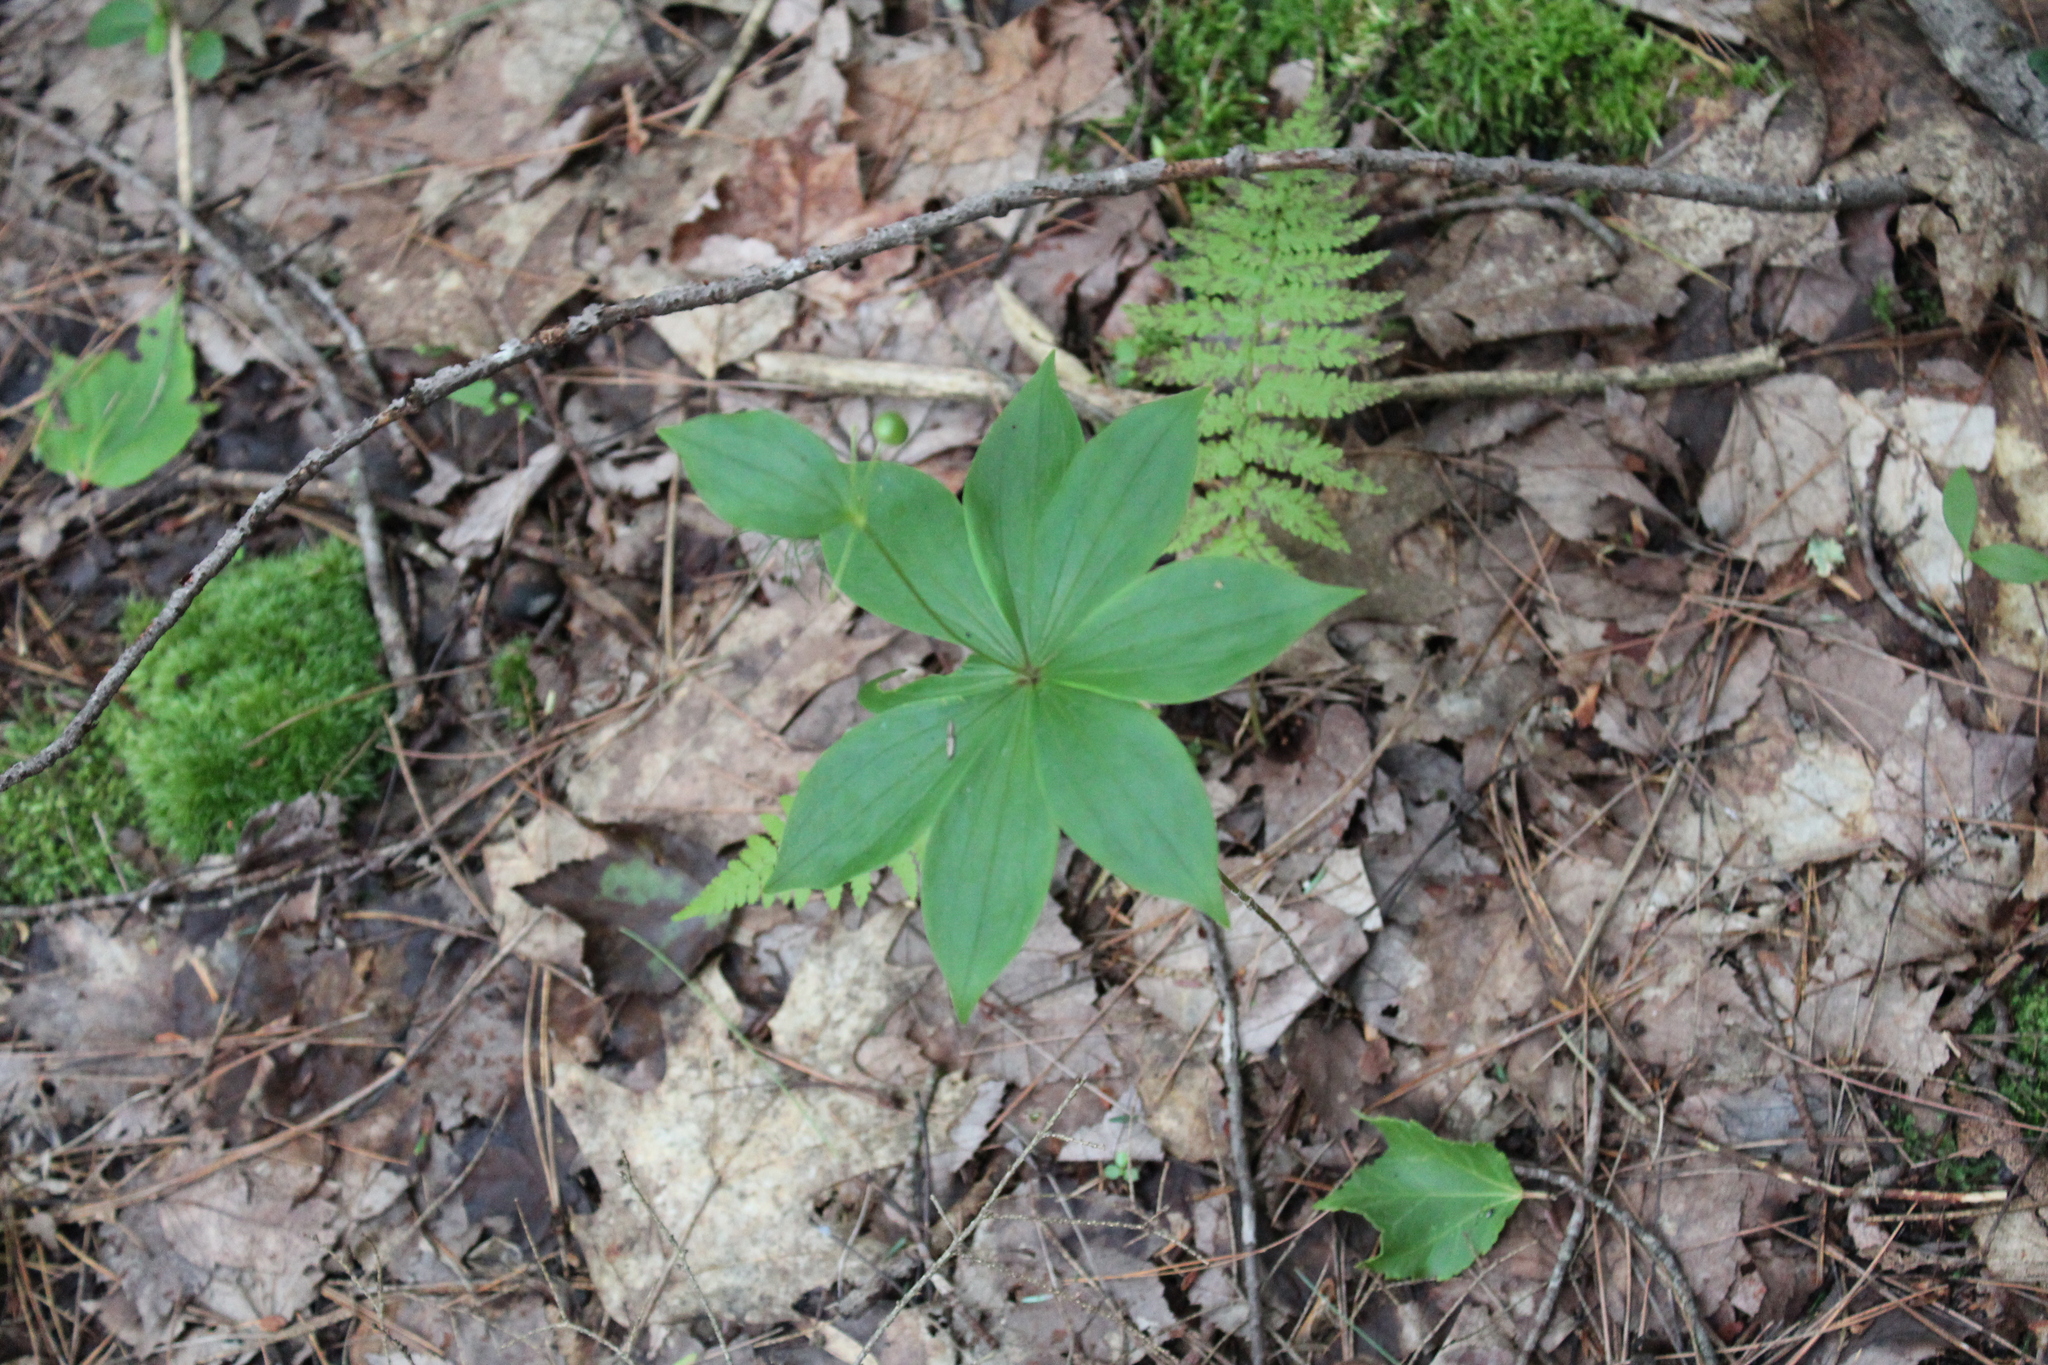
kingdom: Plantae
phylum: Tracheophyta
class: Liliopsida
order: Liliales
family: Liliaceae
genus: Medeola
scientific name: Medeola virginiana
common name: Indian cucumber-root
